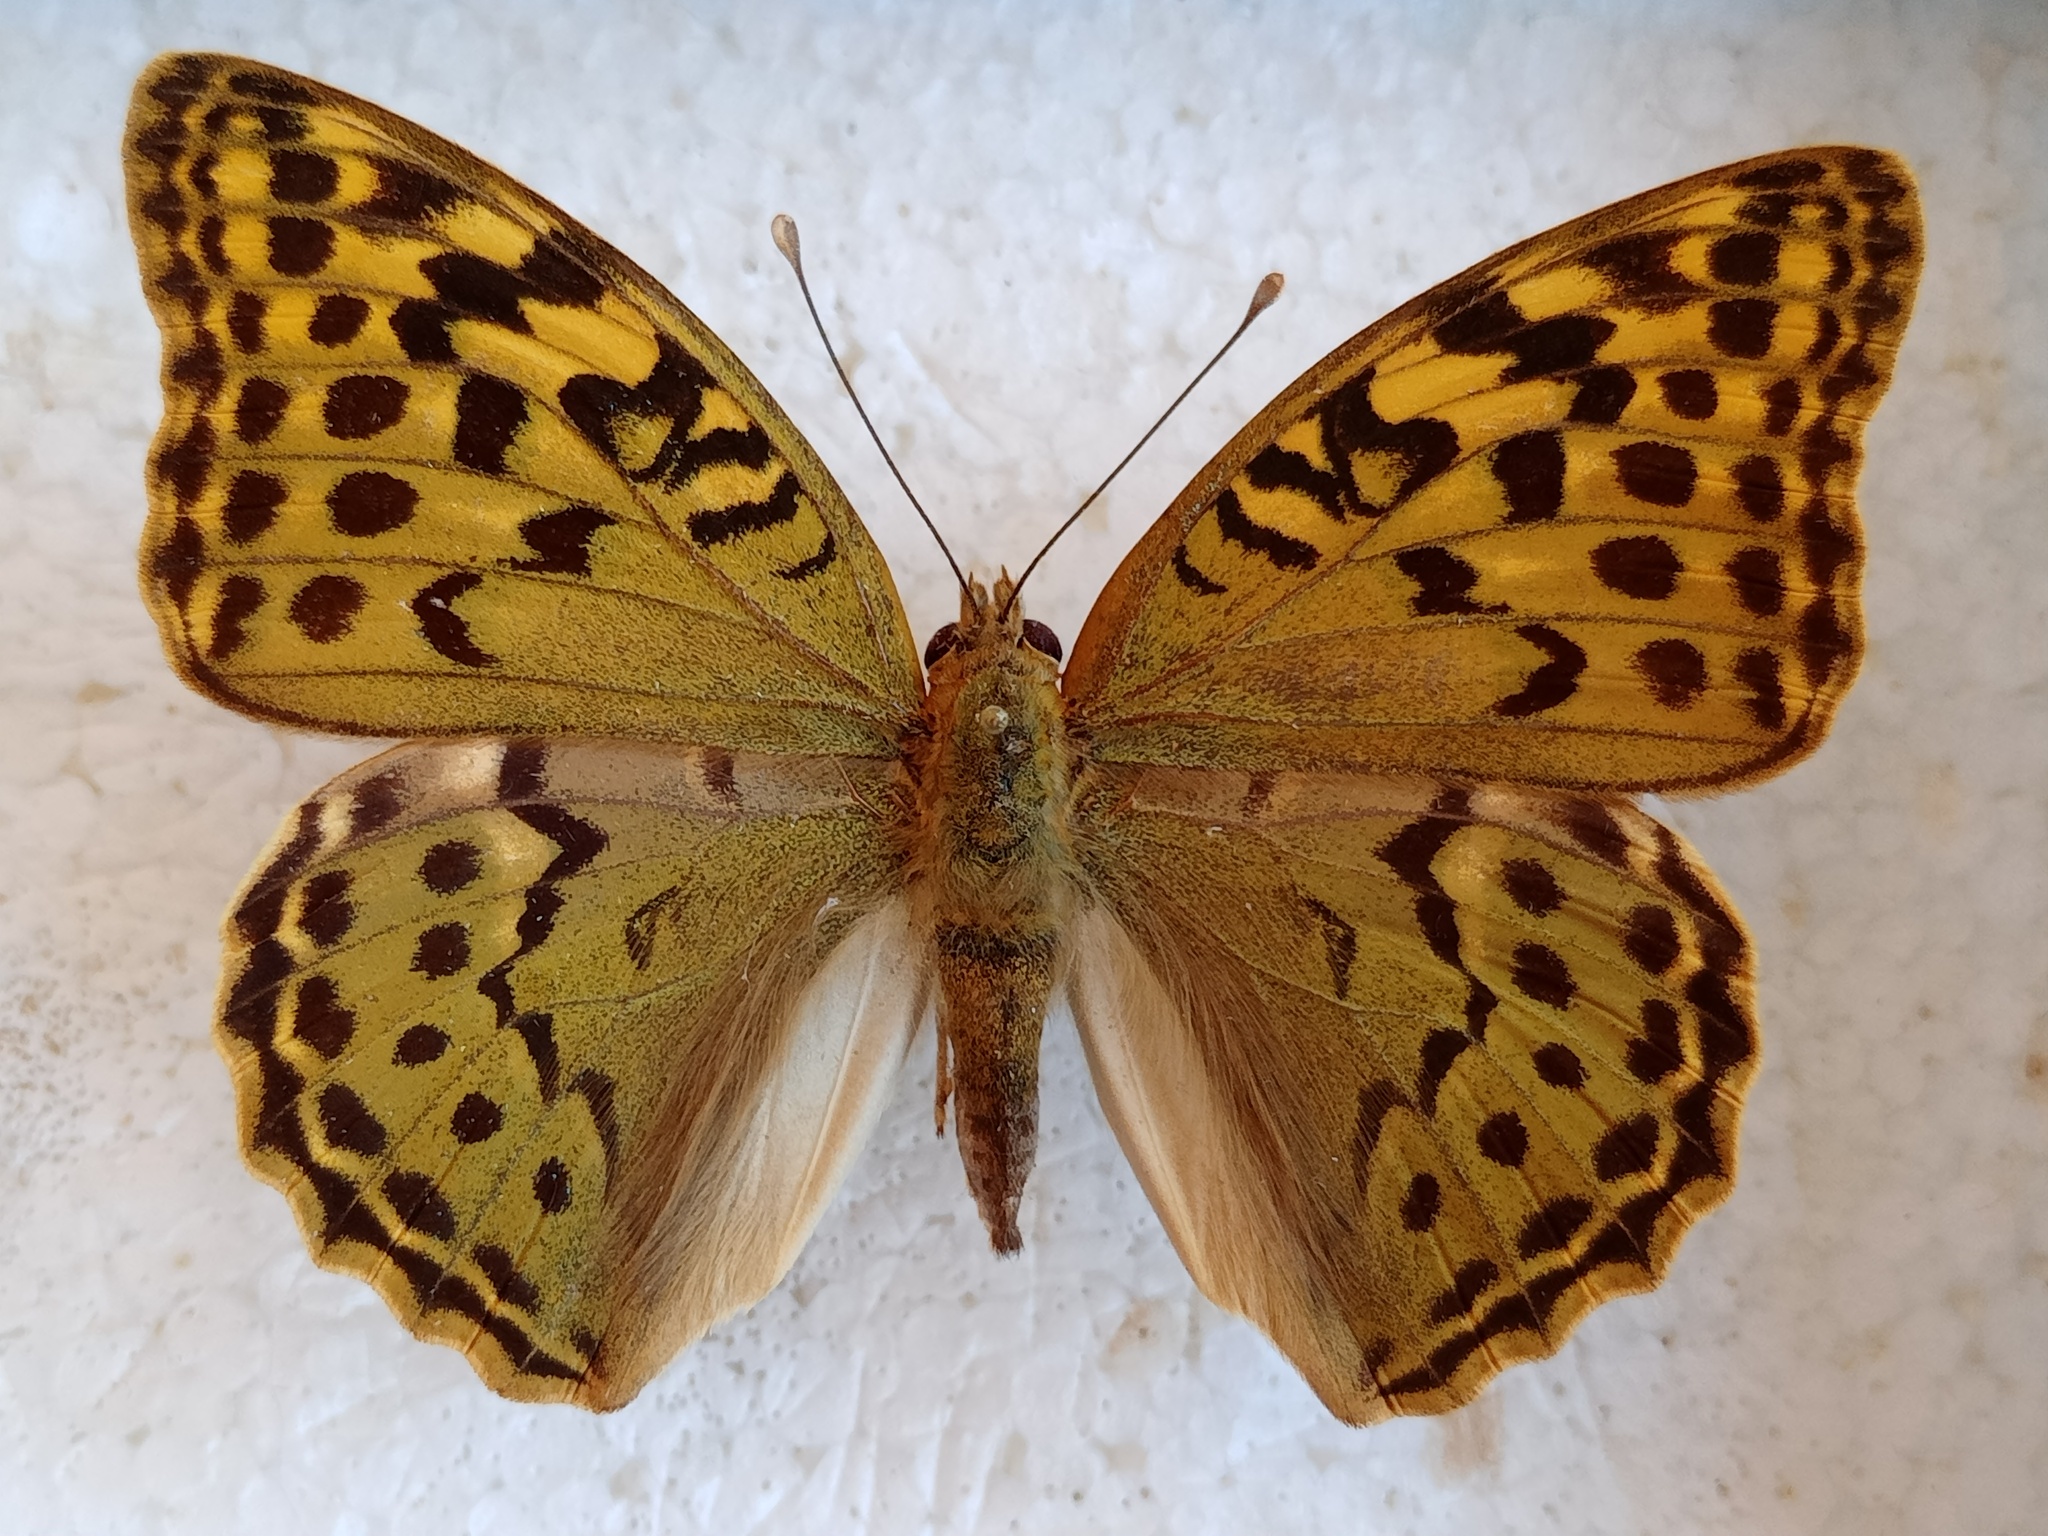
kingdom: Animalia
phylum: Arthropoda
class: Insecta
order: Lepidoptera
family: Nymphalidae
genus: Damora
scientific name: Damora pandora
